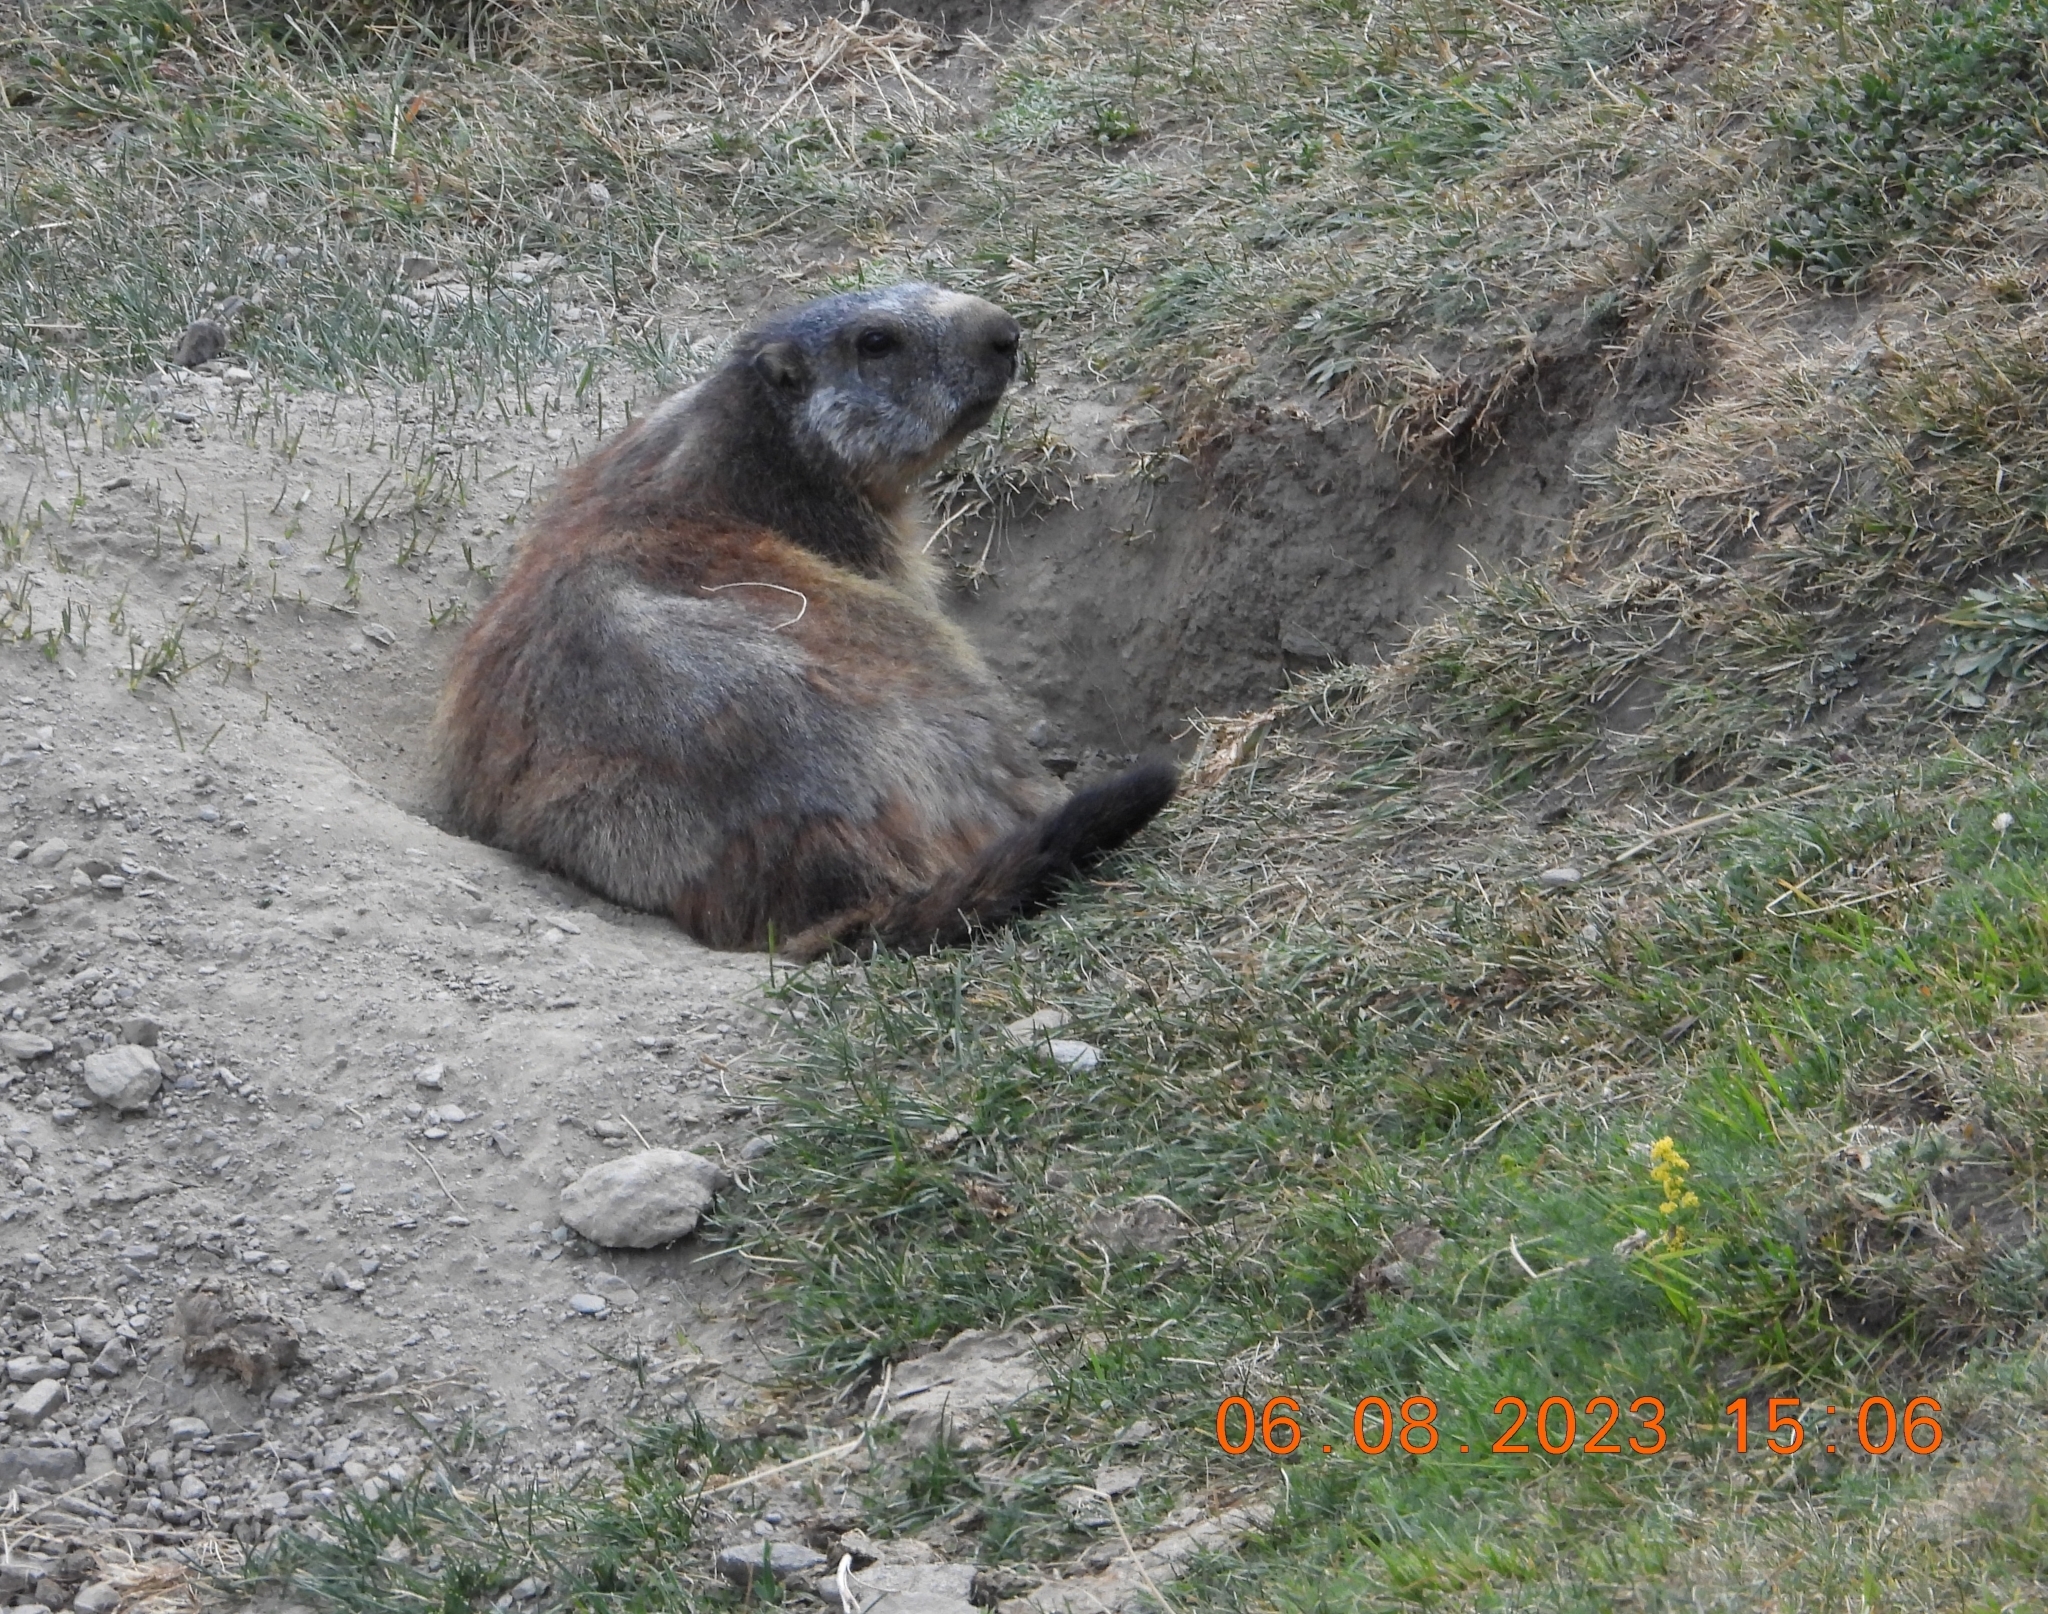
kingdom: Animalia
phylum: Chordata
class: Mammalia
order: Rodentia
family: Sciuridae
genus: Marmota
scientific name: Marmota marmota
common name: Alpine marmot
